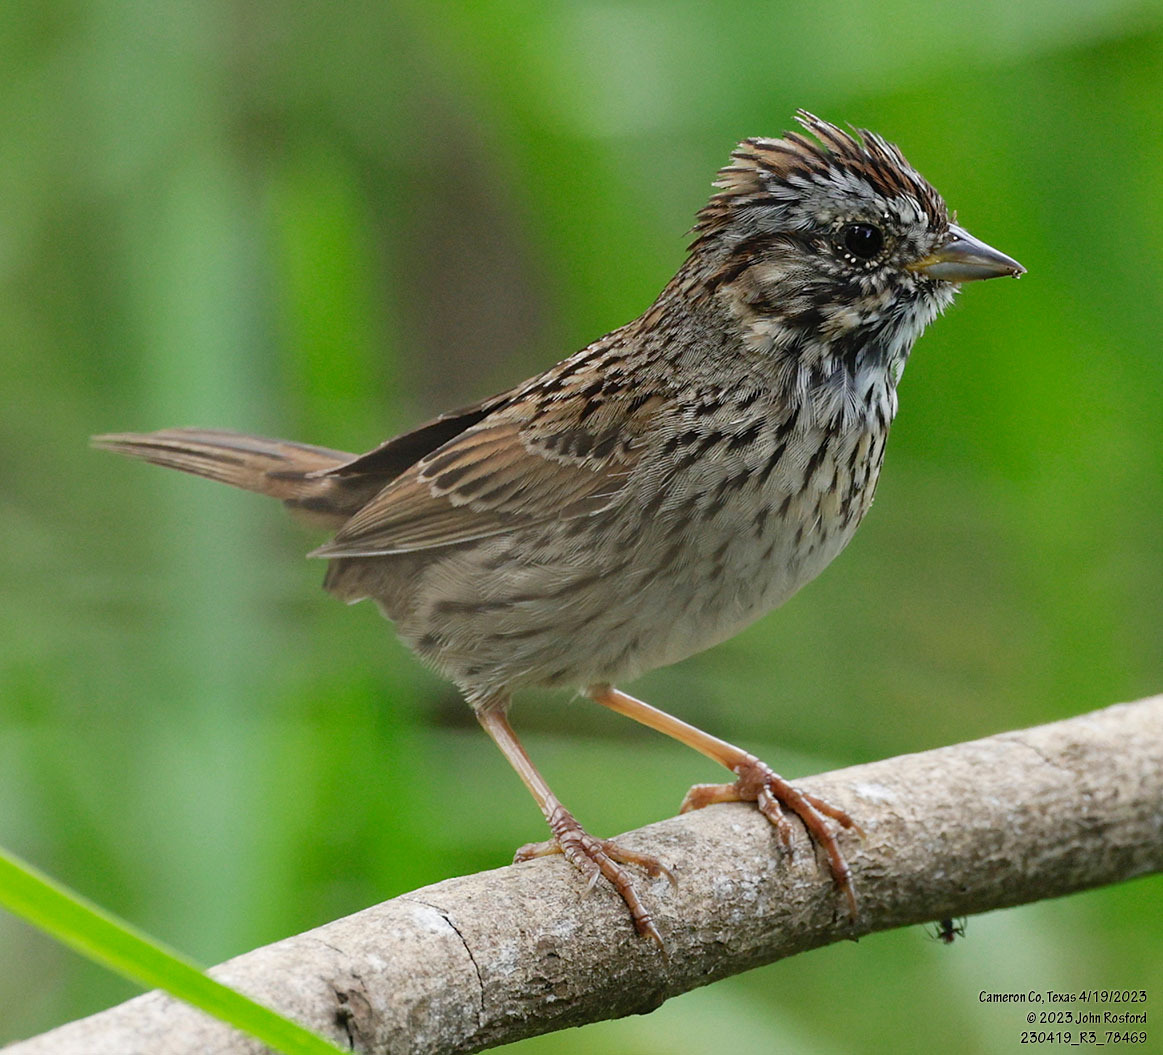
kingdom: Animalia
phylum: Chordata
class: Aves
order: Passeriformes
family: Passerellidae
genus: Melospiza
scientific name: Melospiza lincolnii
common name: Lincoln's sparrow
